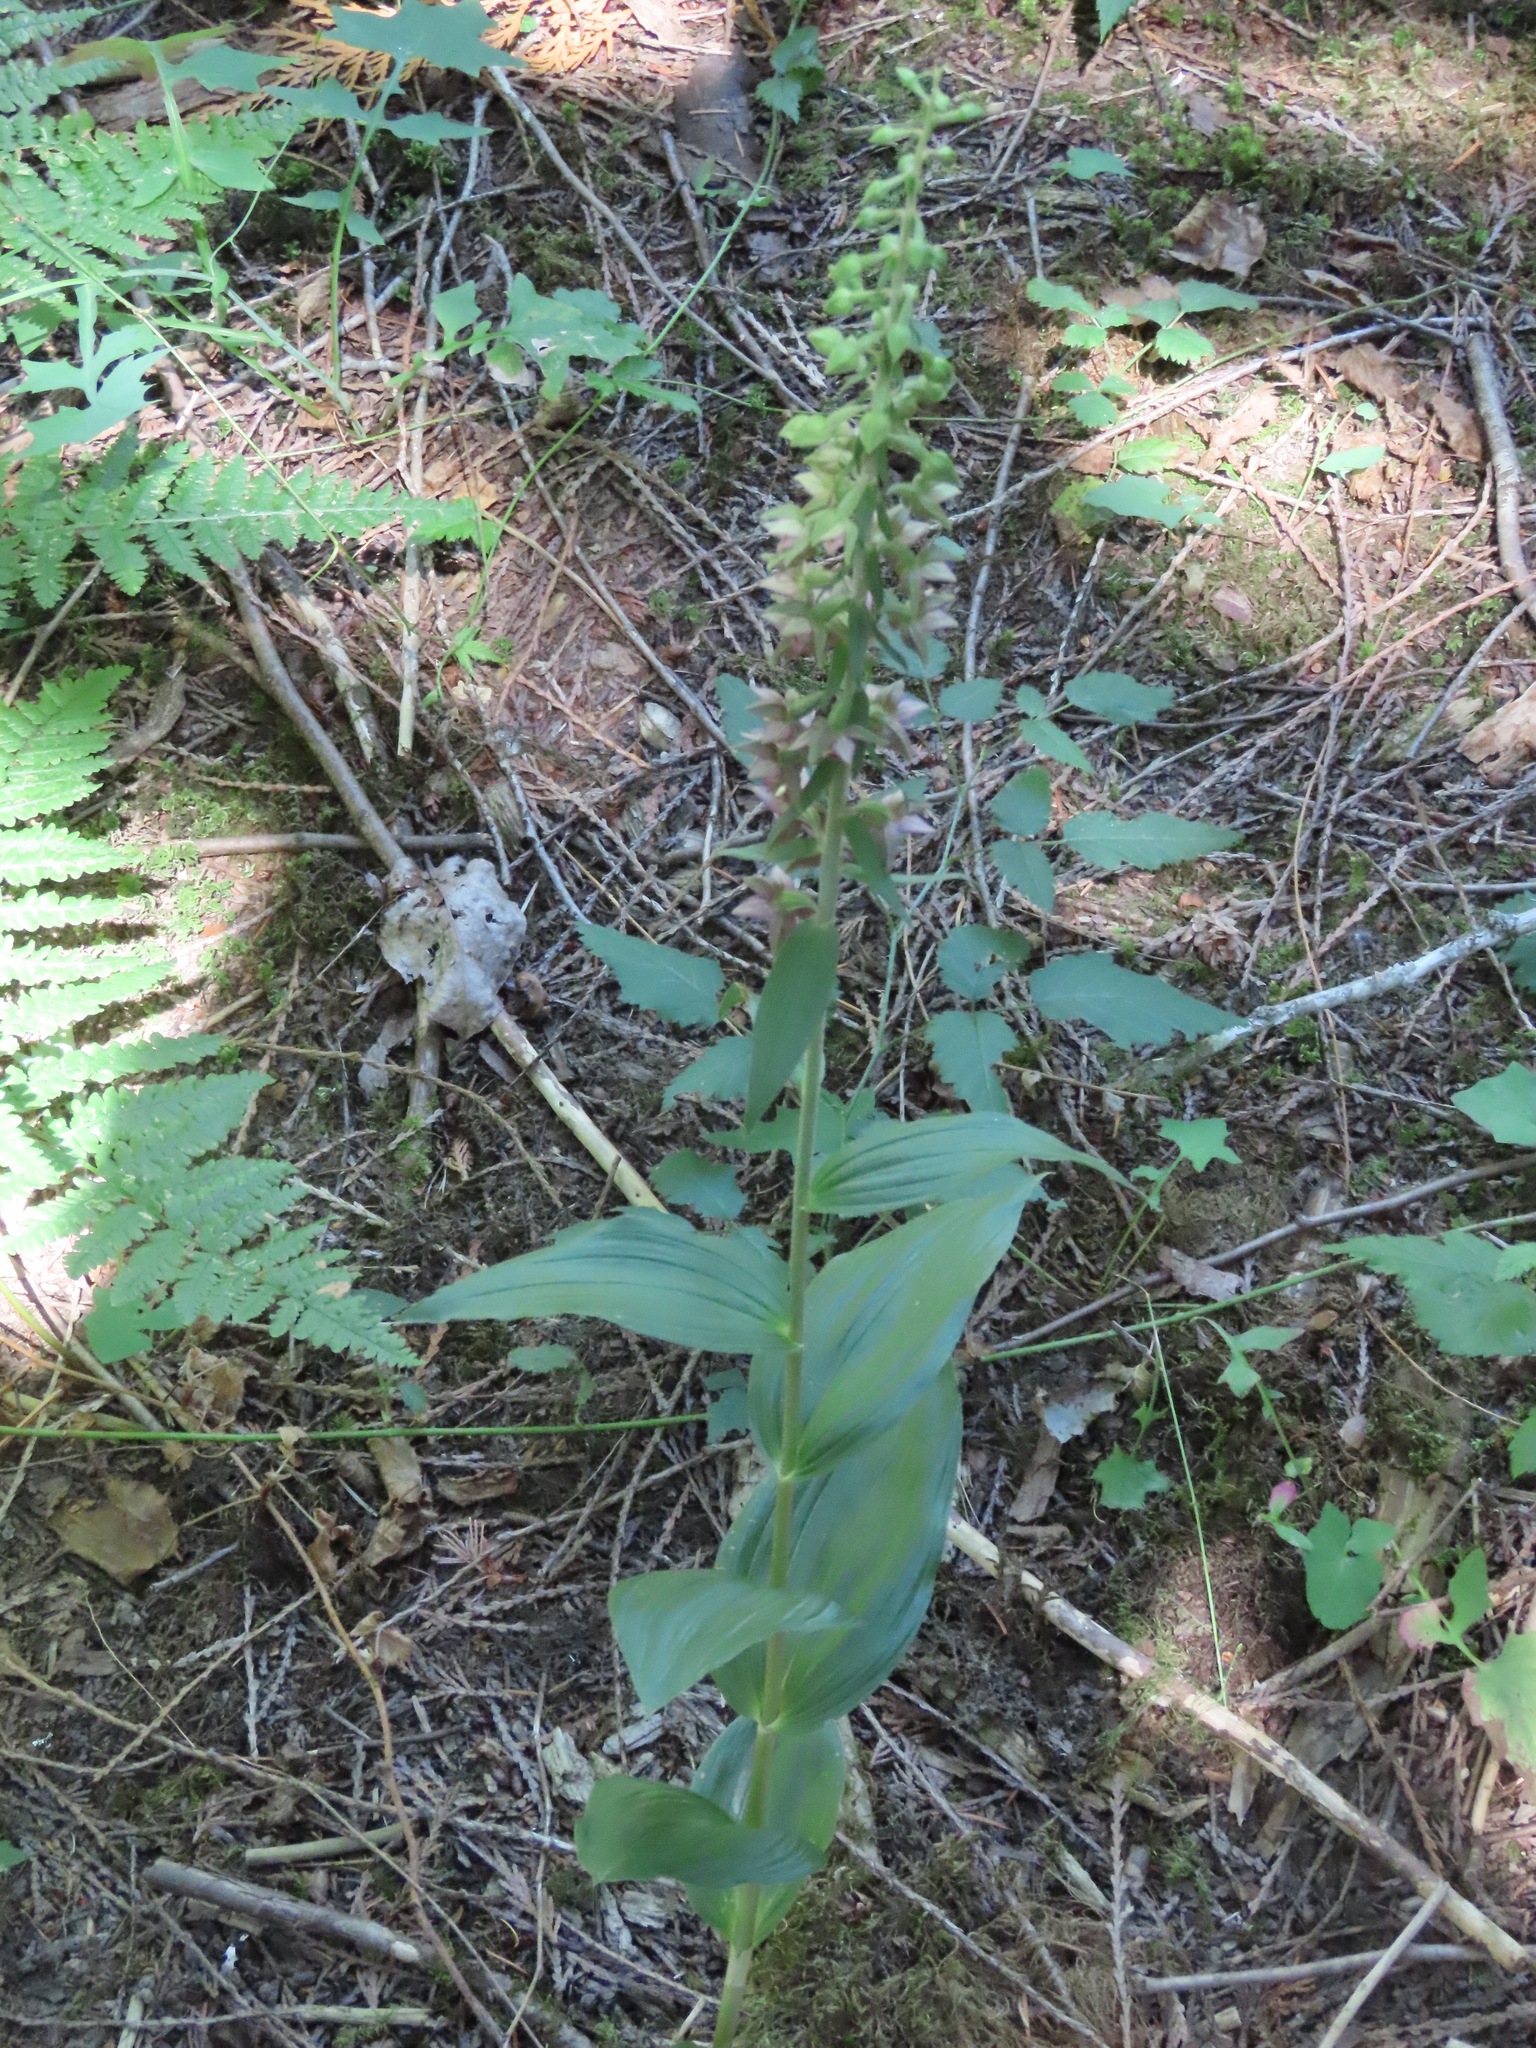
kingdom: Plantae
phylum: Tracheophyta
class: Liliopsida
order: Asparagales
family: Orchidaceae
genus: Epipactis
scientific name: Epipactis helleborine
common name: Broad-leaved helleborine
